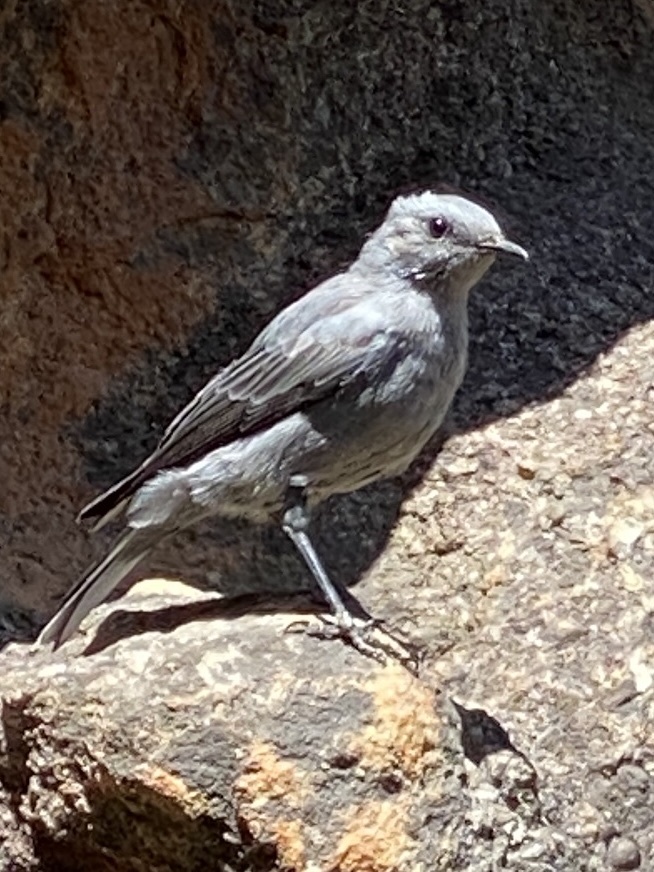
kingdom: Animalia
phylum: Chordata
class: Aves
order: Passeriformes
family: Muscicapidae
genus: Oenanthe
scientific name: Oenanthe monticola
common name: Mountain wheatear
